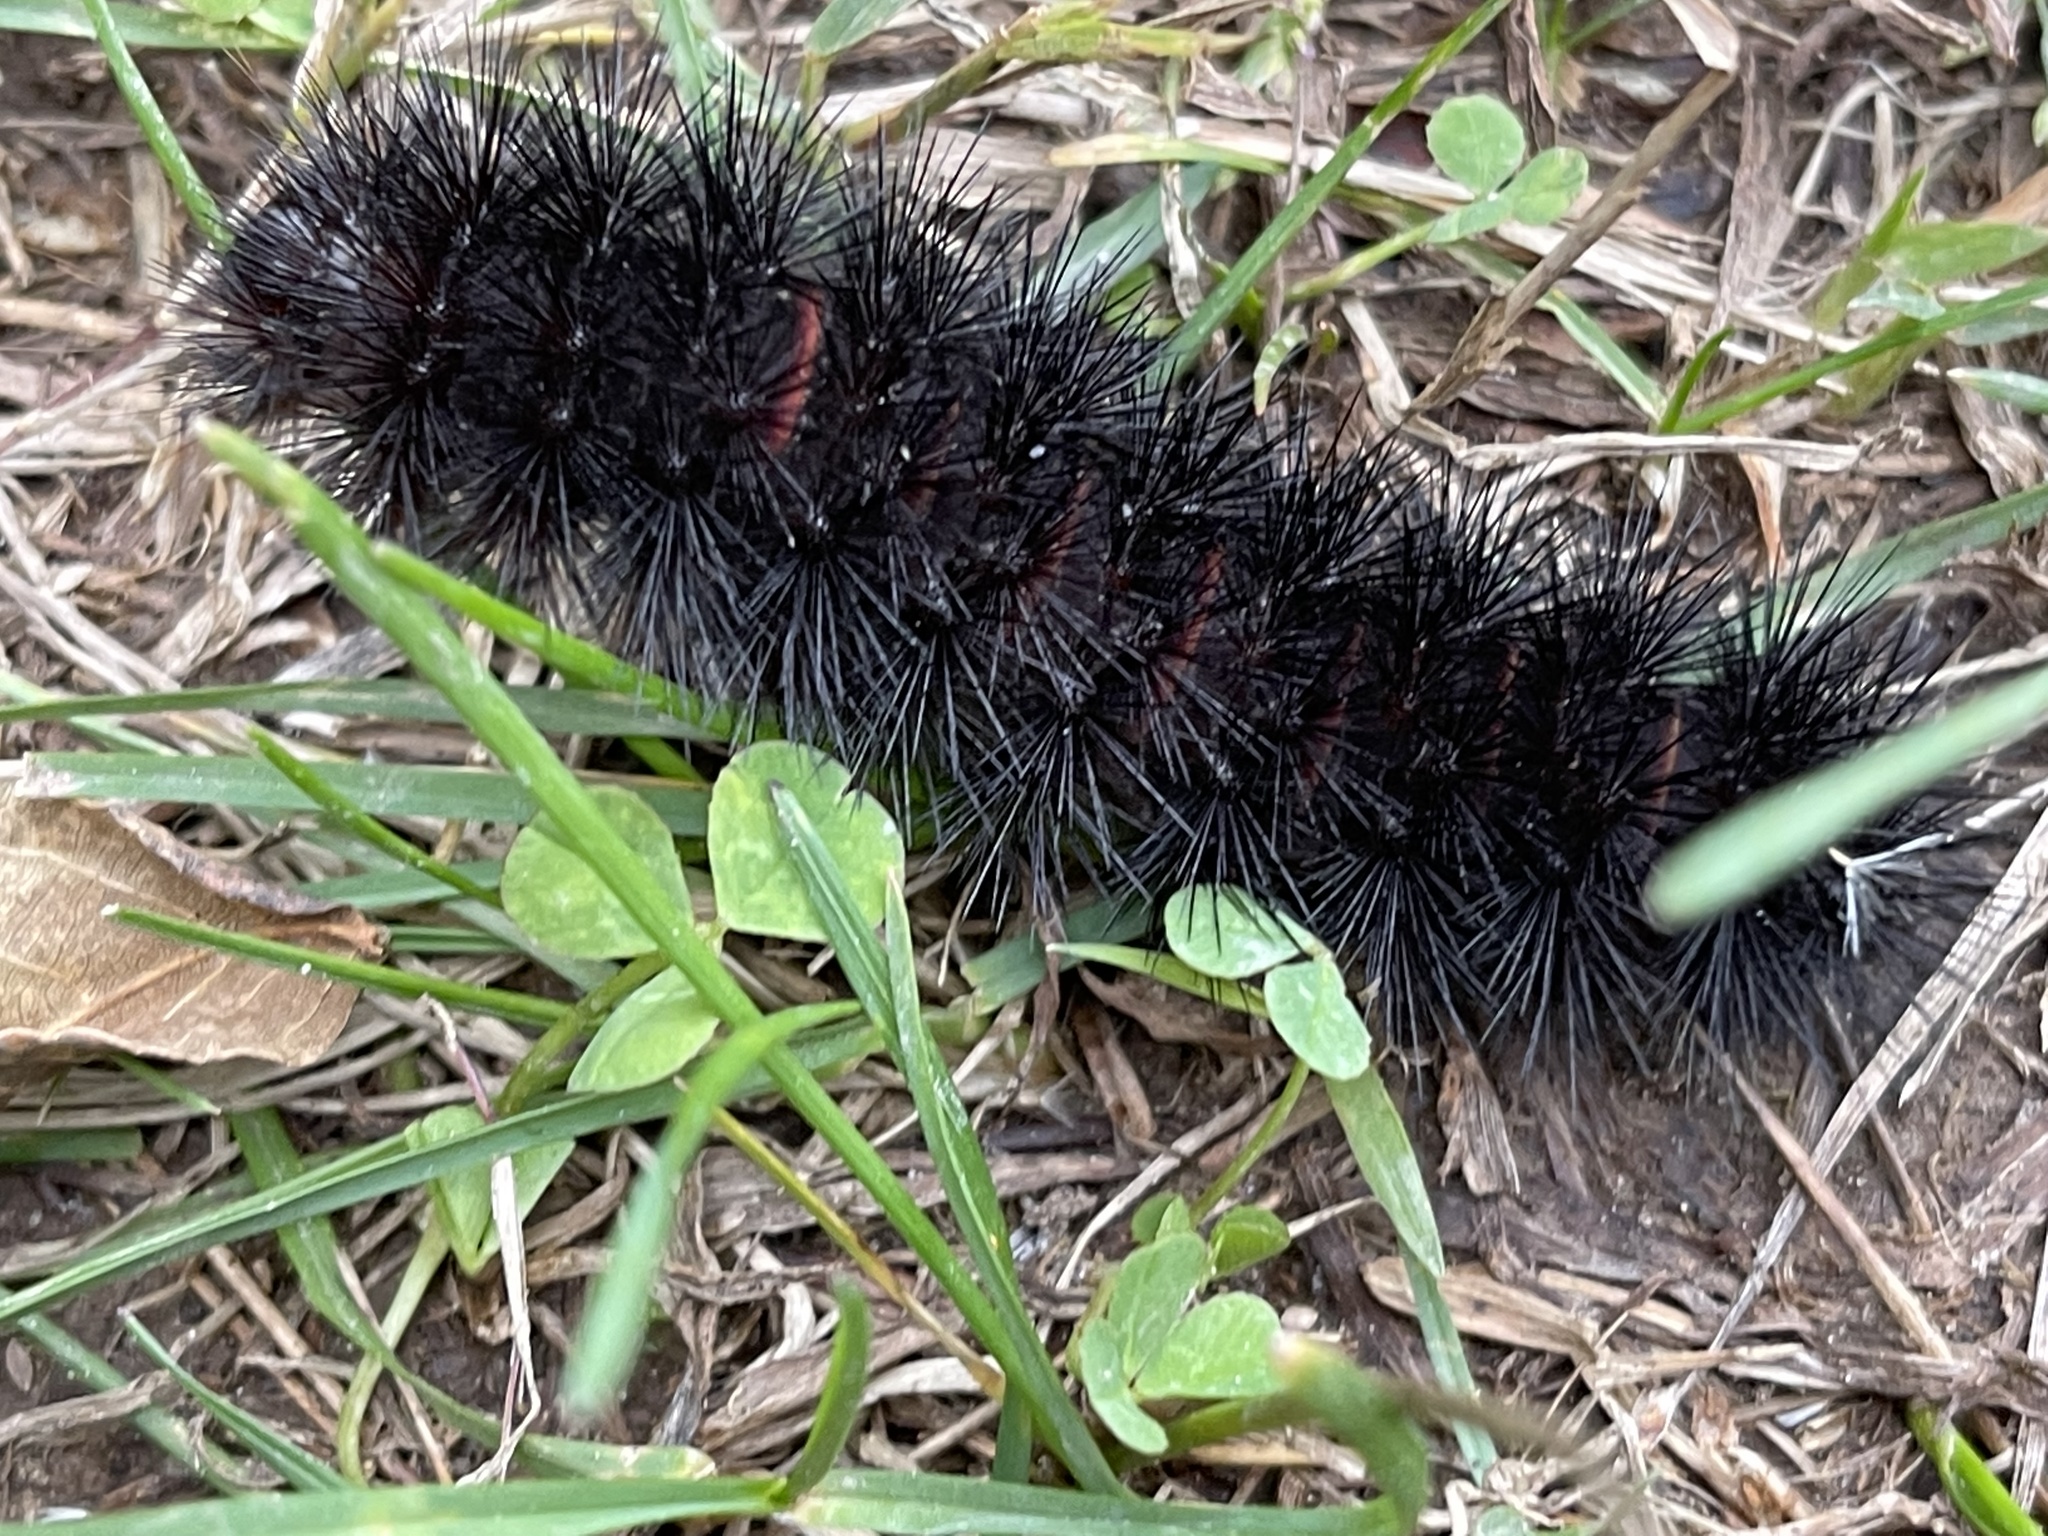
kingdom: Animalia
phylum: Arthropoda
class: Insecta
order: Lepidoptera
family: Erebidae
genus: Hypercompe
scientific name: Hypercompe scribonia
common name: Giant leopard moth
